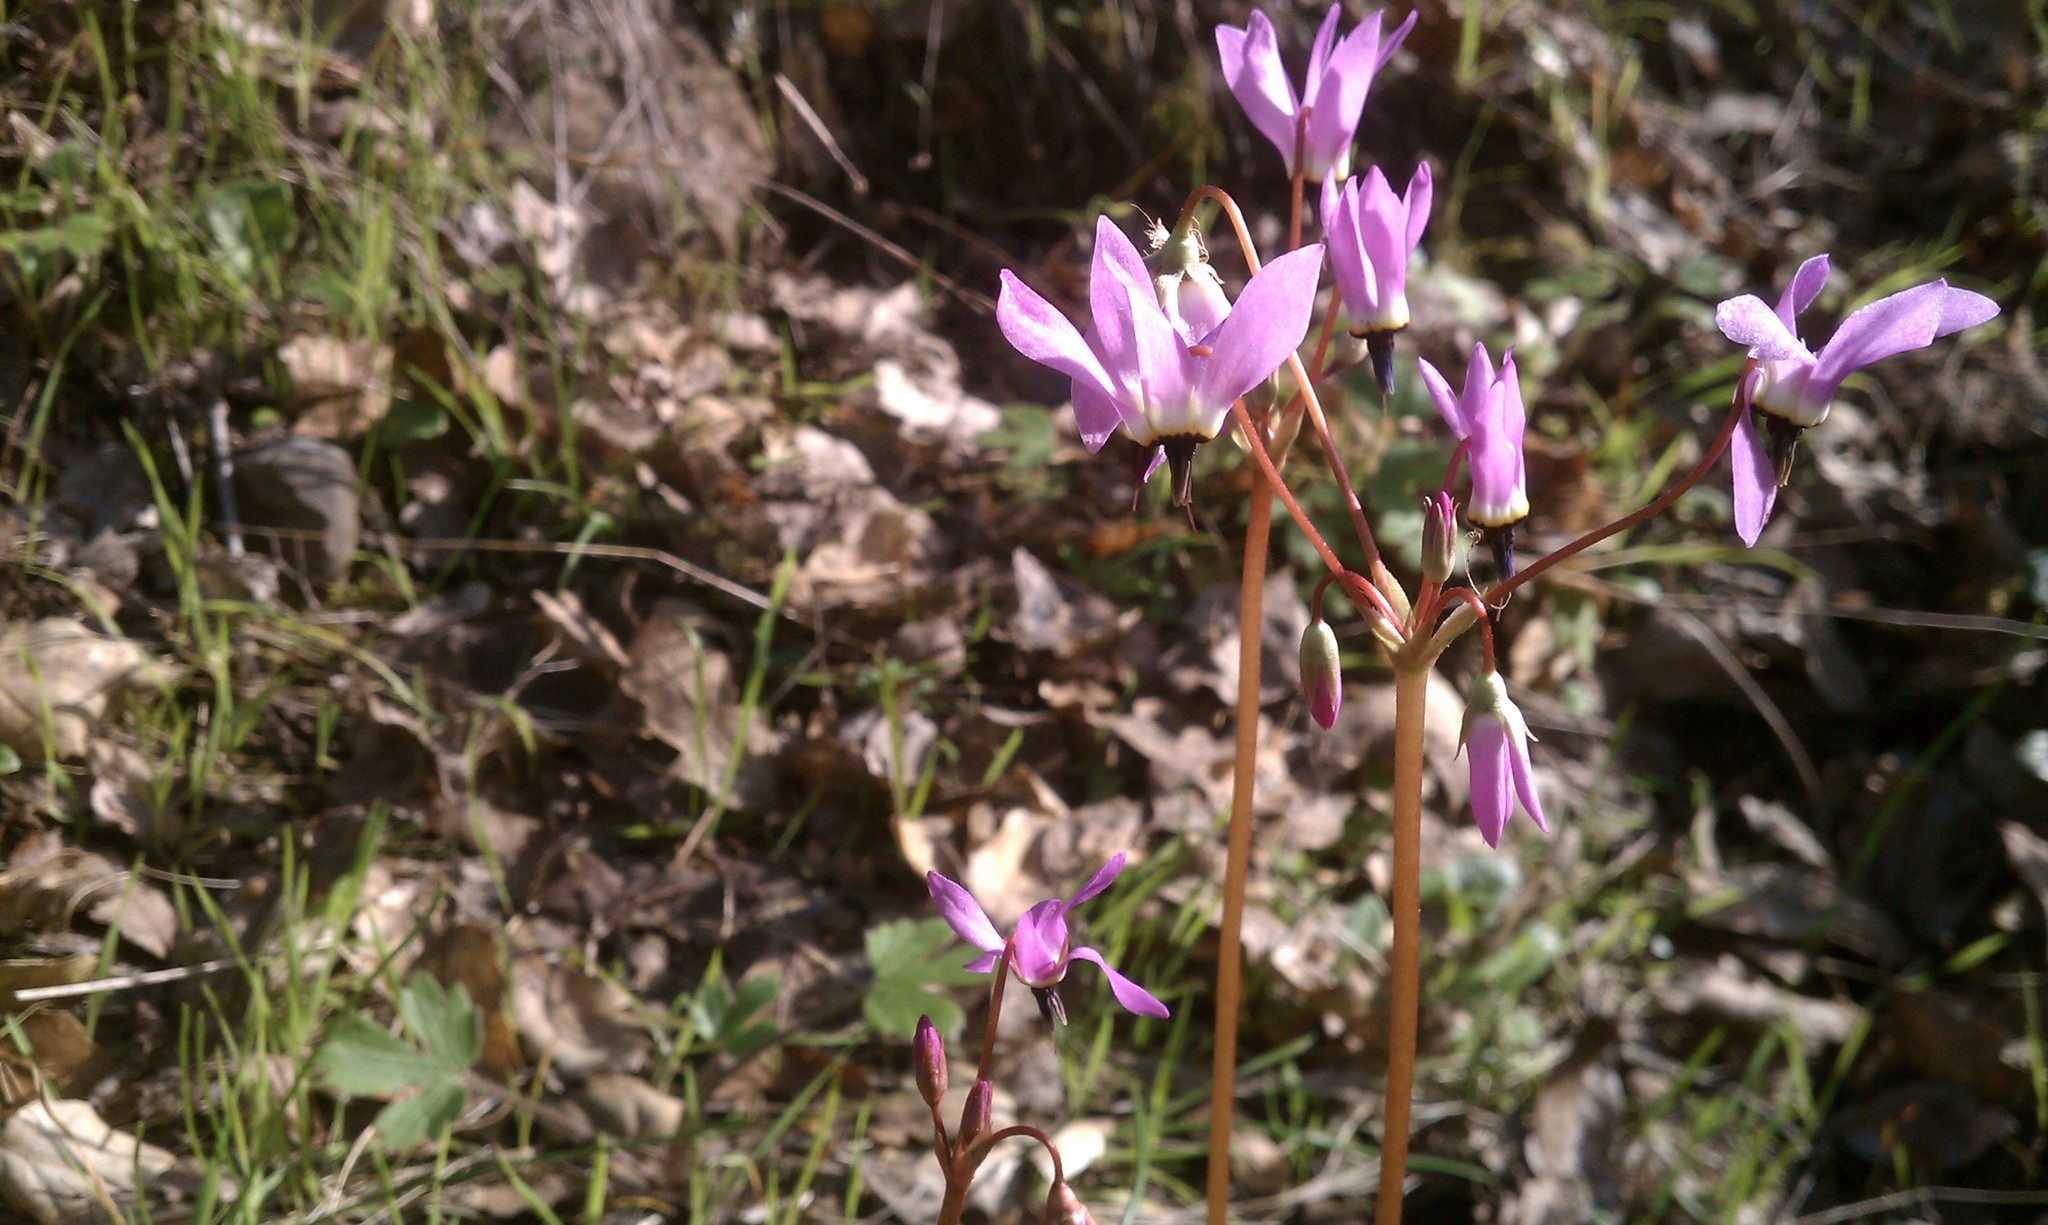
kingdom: Plantae
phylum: Tracheophyta
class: Magnoliopsida
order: Ericales
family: Primulaceae
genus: Dodecatheon
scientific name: Dodecatheon hendersonii
